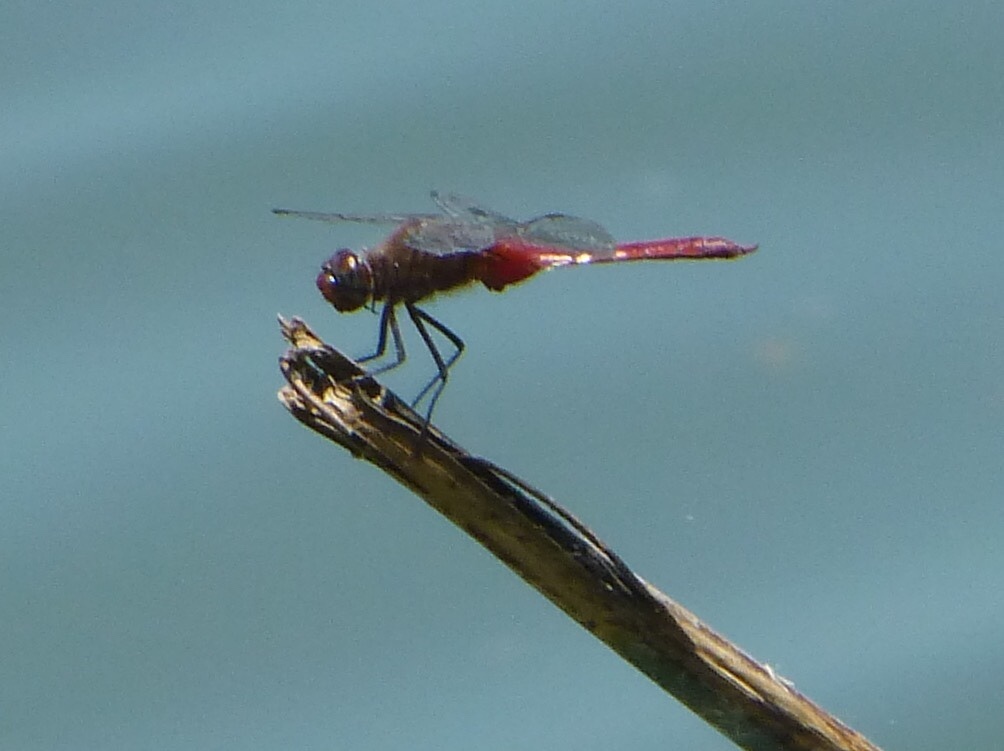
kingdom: Animalia
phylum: Arthropoda
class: Insecta
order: Odonata
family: Libellulidae
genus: Brachymesia
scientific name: Brachymesia furcata
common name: Red-taled pennant
